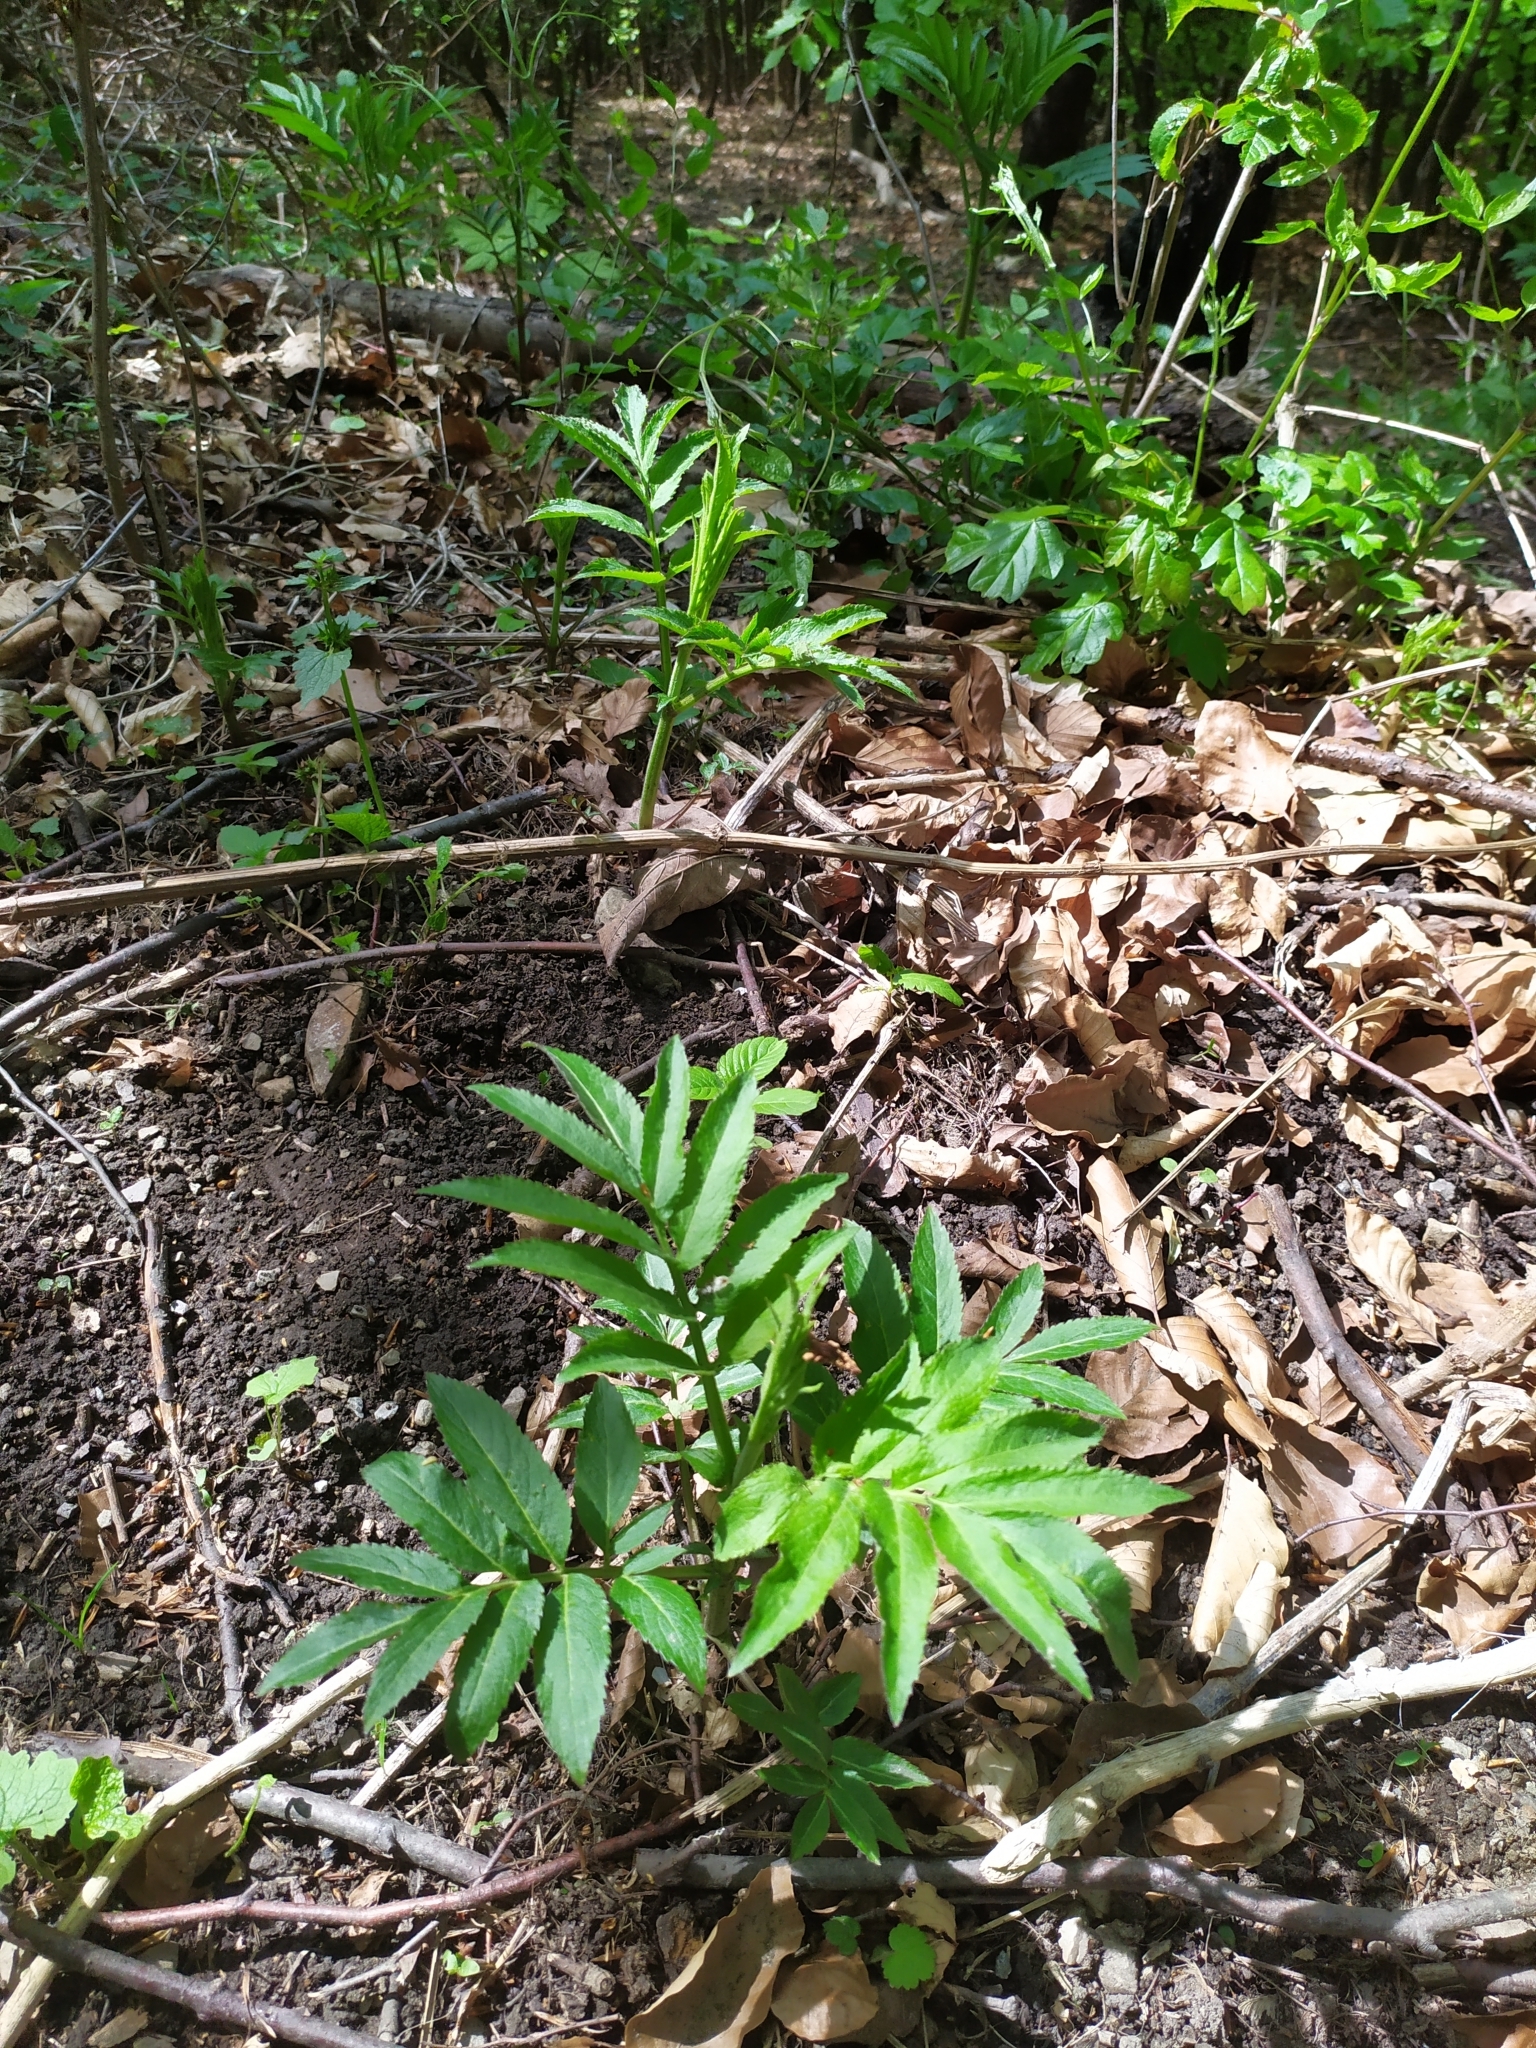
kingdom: Plantae
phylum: Tracheophyta
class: Magnoliopsida
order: Dipsacales
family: Viburnaceae
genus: Sambucus
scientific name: Sambucus ebulus
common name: Dwarf elder
